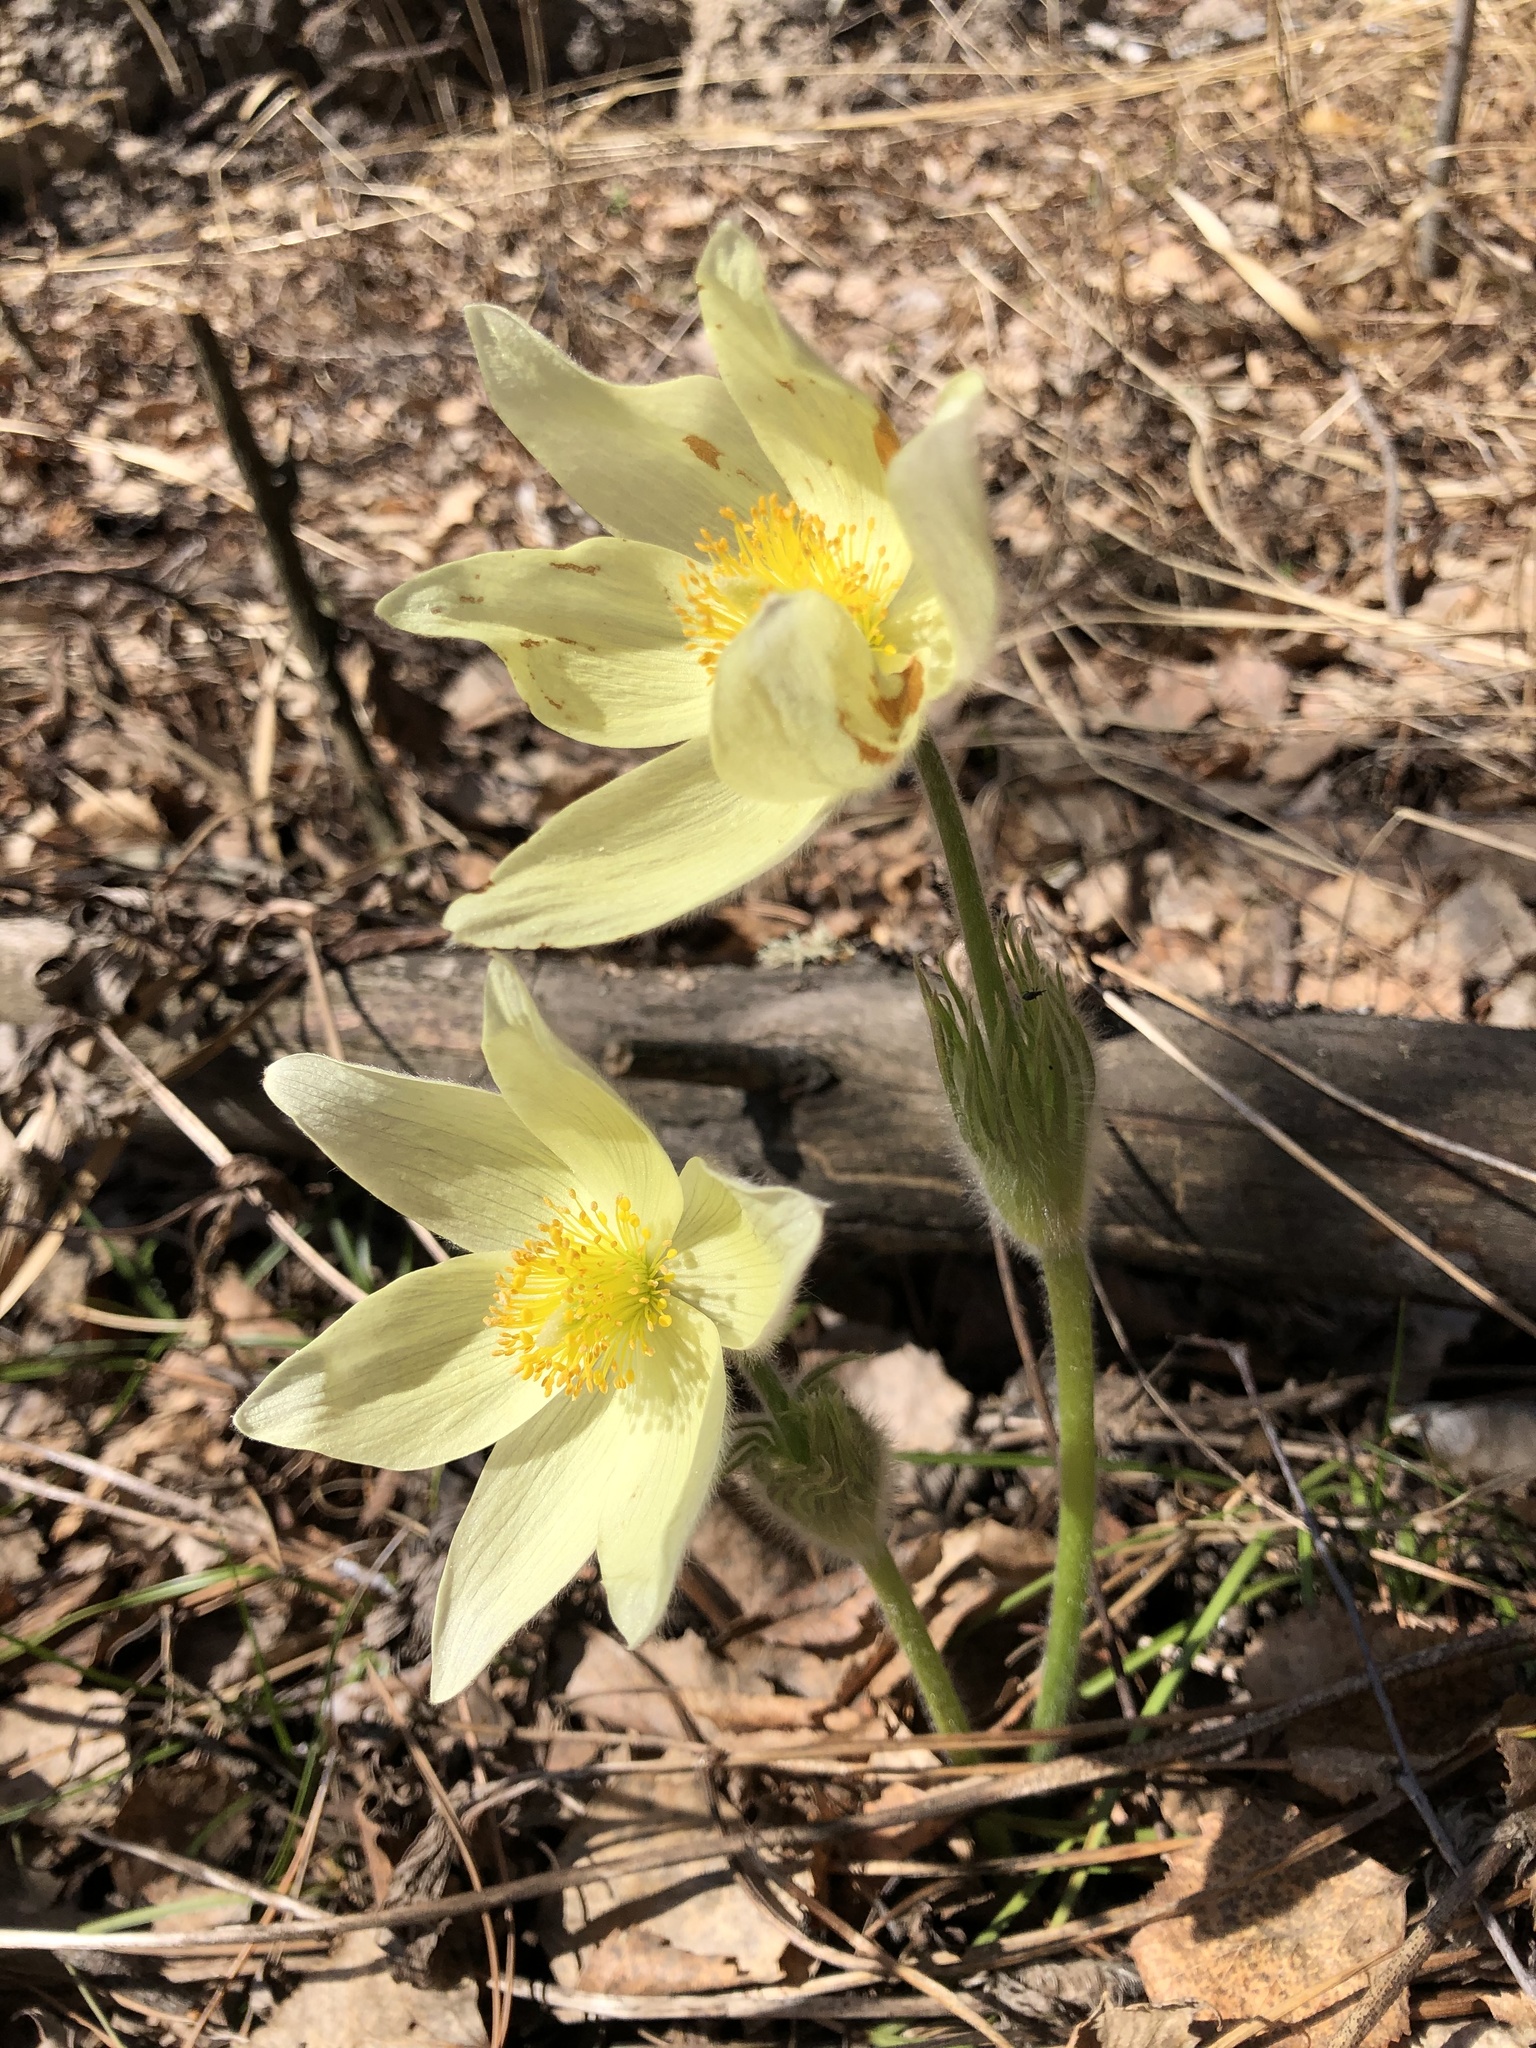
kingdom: Plantae
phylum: Tracheophyta
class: Magnoliopsida
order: Ranunculales
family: Ranunculaceae
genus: Pulsatilla
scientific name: Pulsatilla patens
